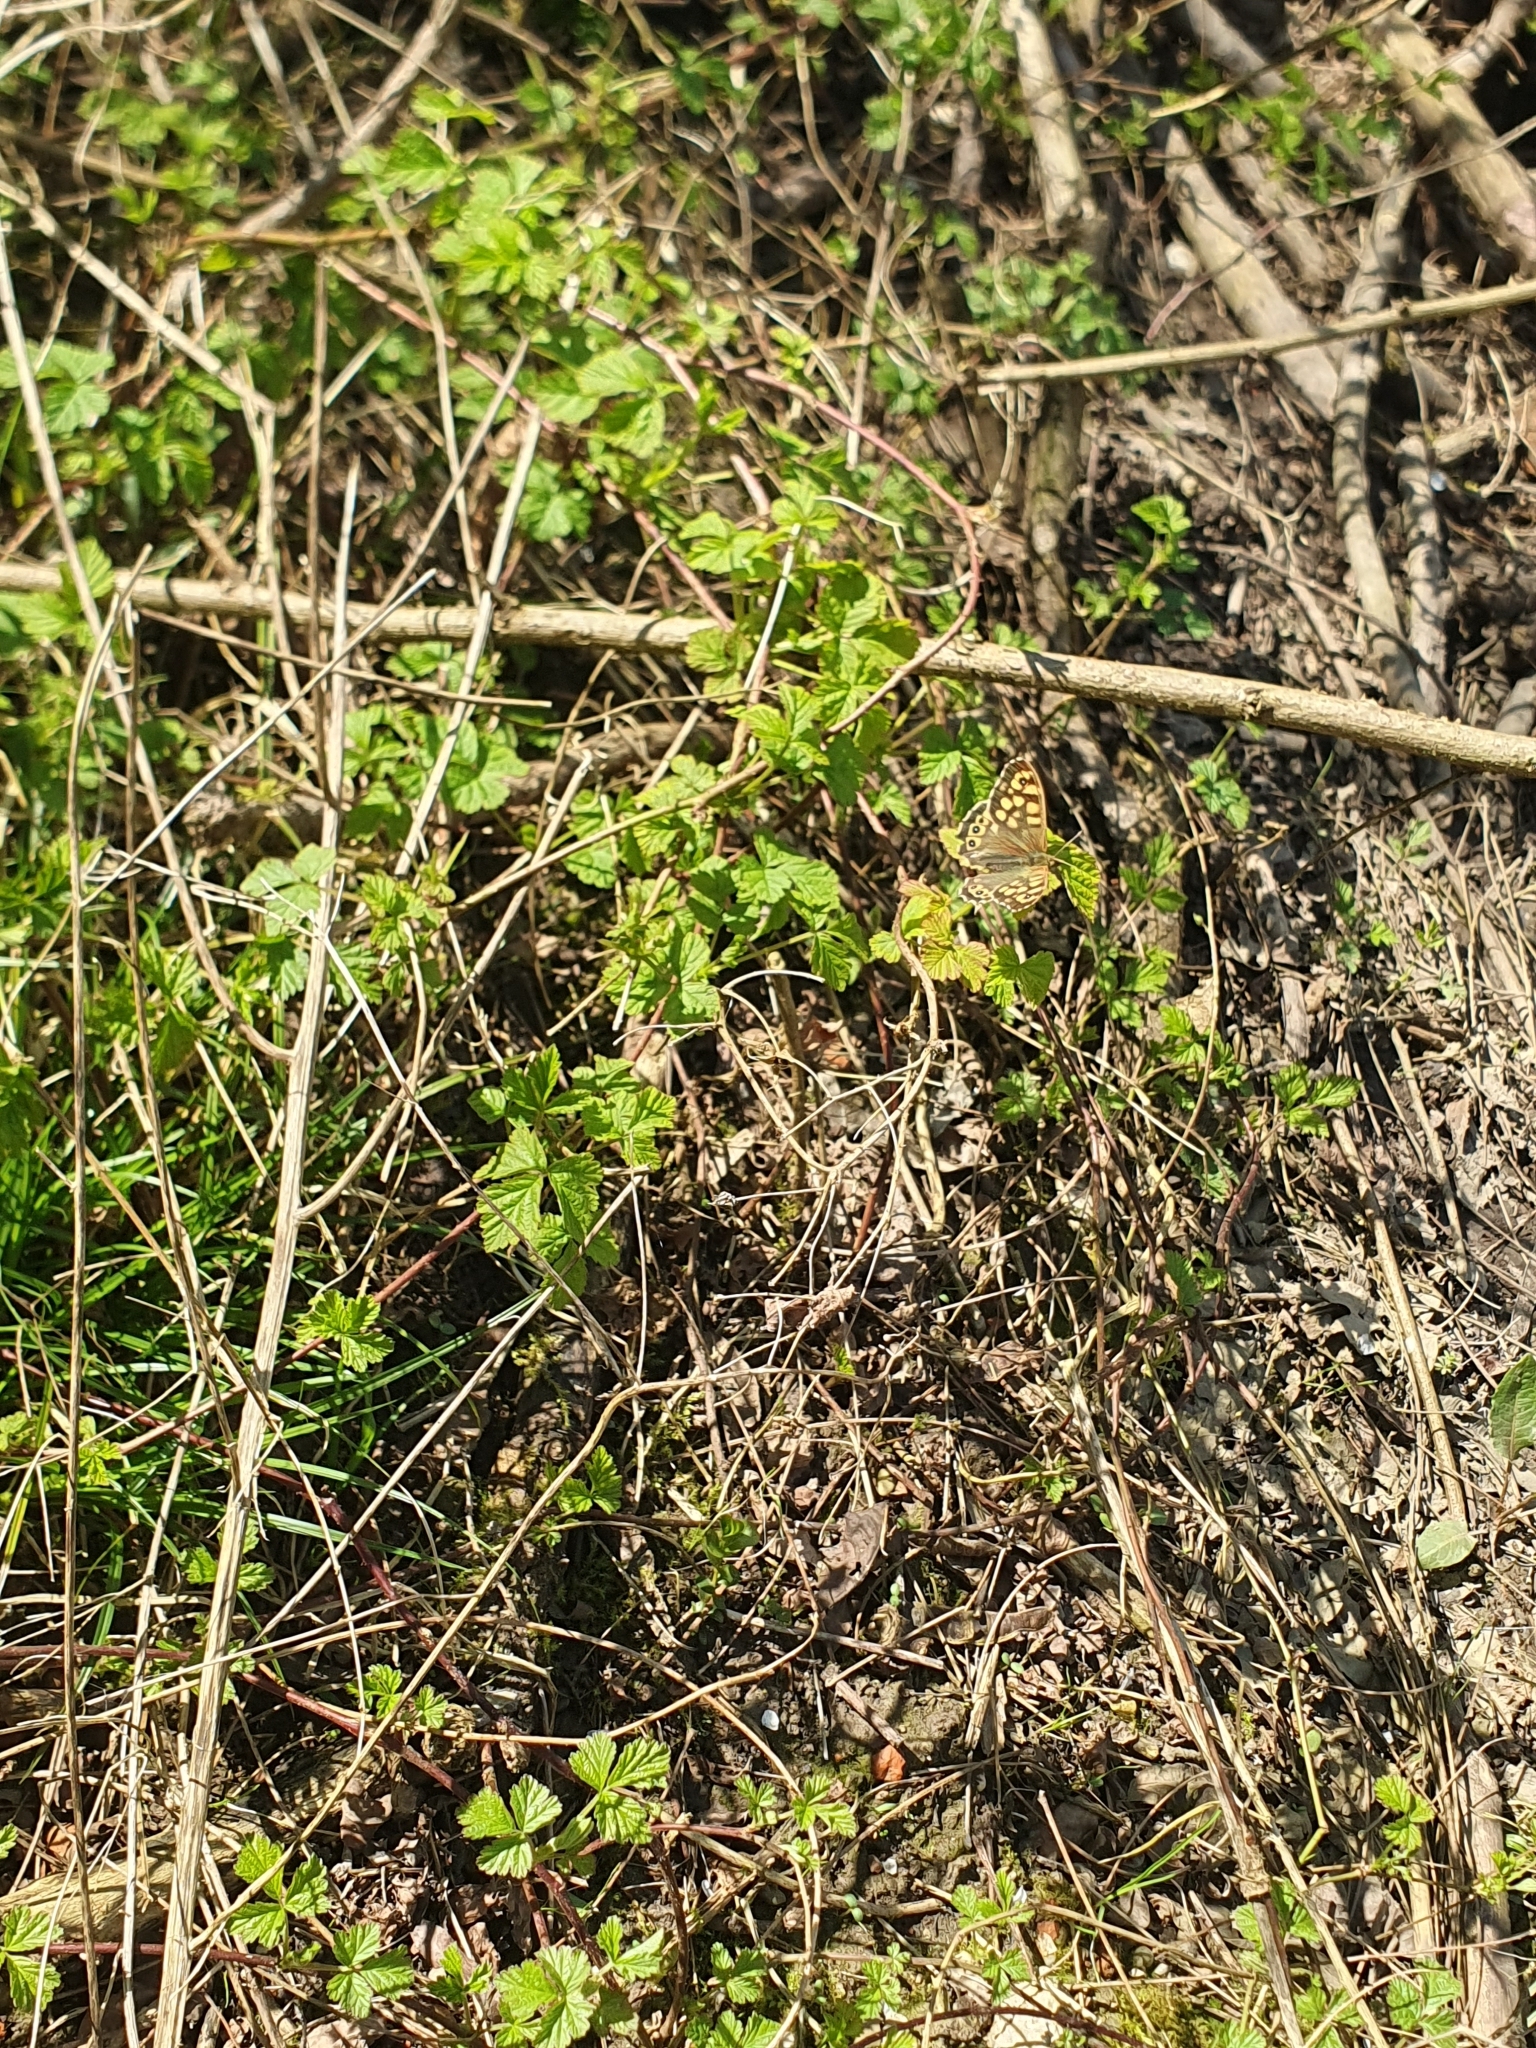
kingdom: Animalia
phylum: Arthropoda
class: Insecta
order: Lepidoptera
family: Nymphalidae
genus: Pararge
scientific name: Pararge aegeria
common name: Speckled wood
